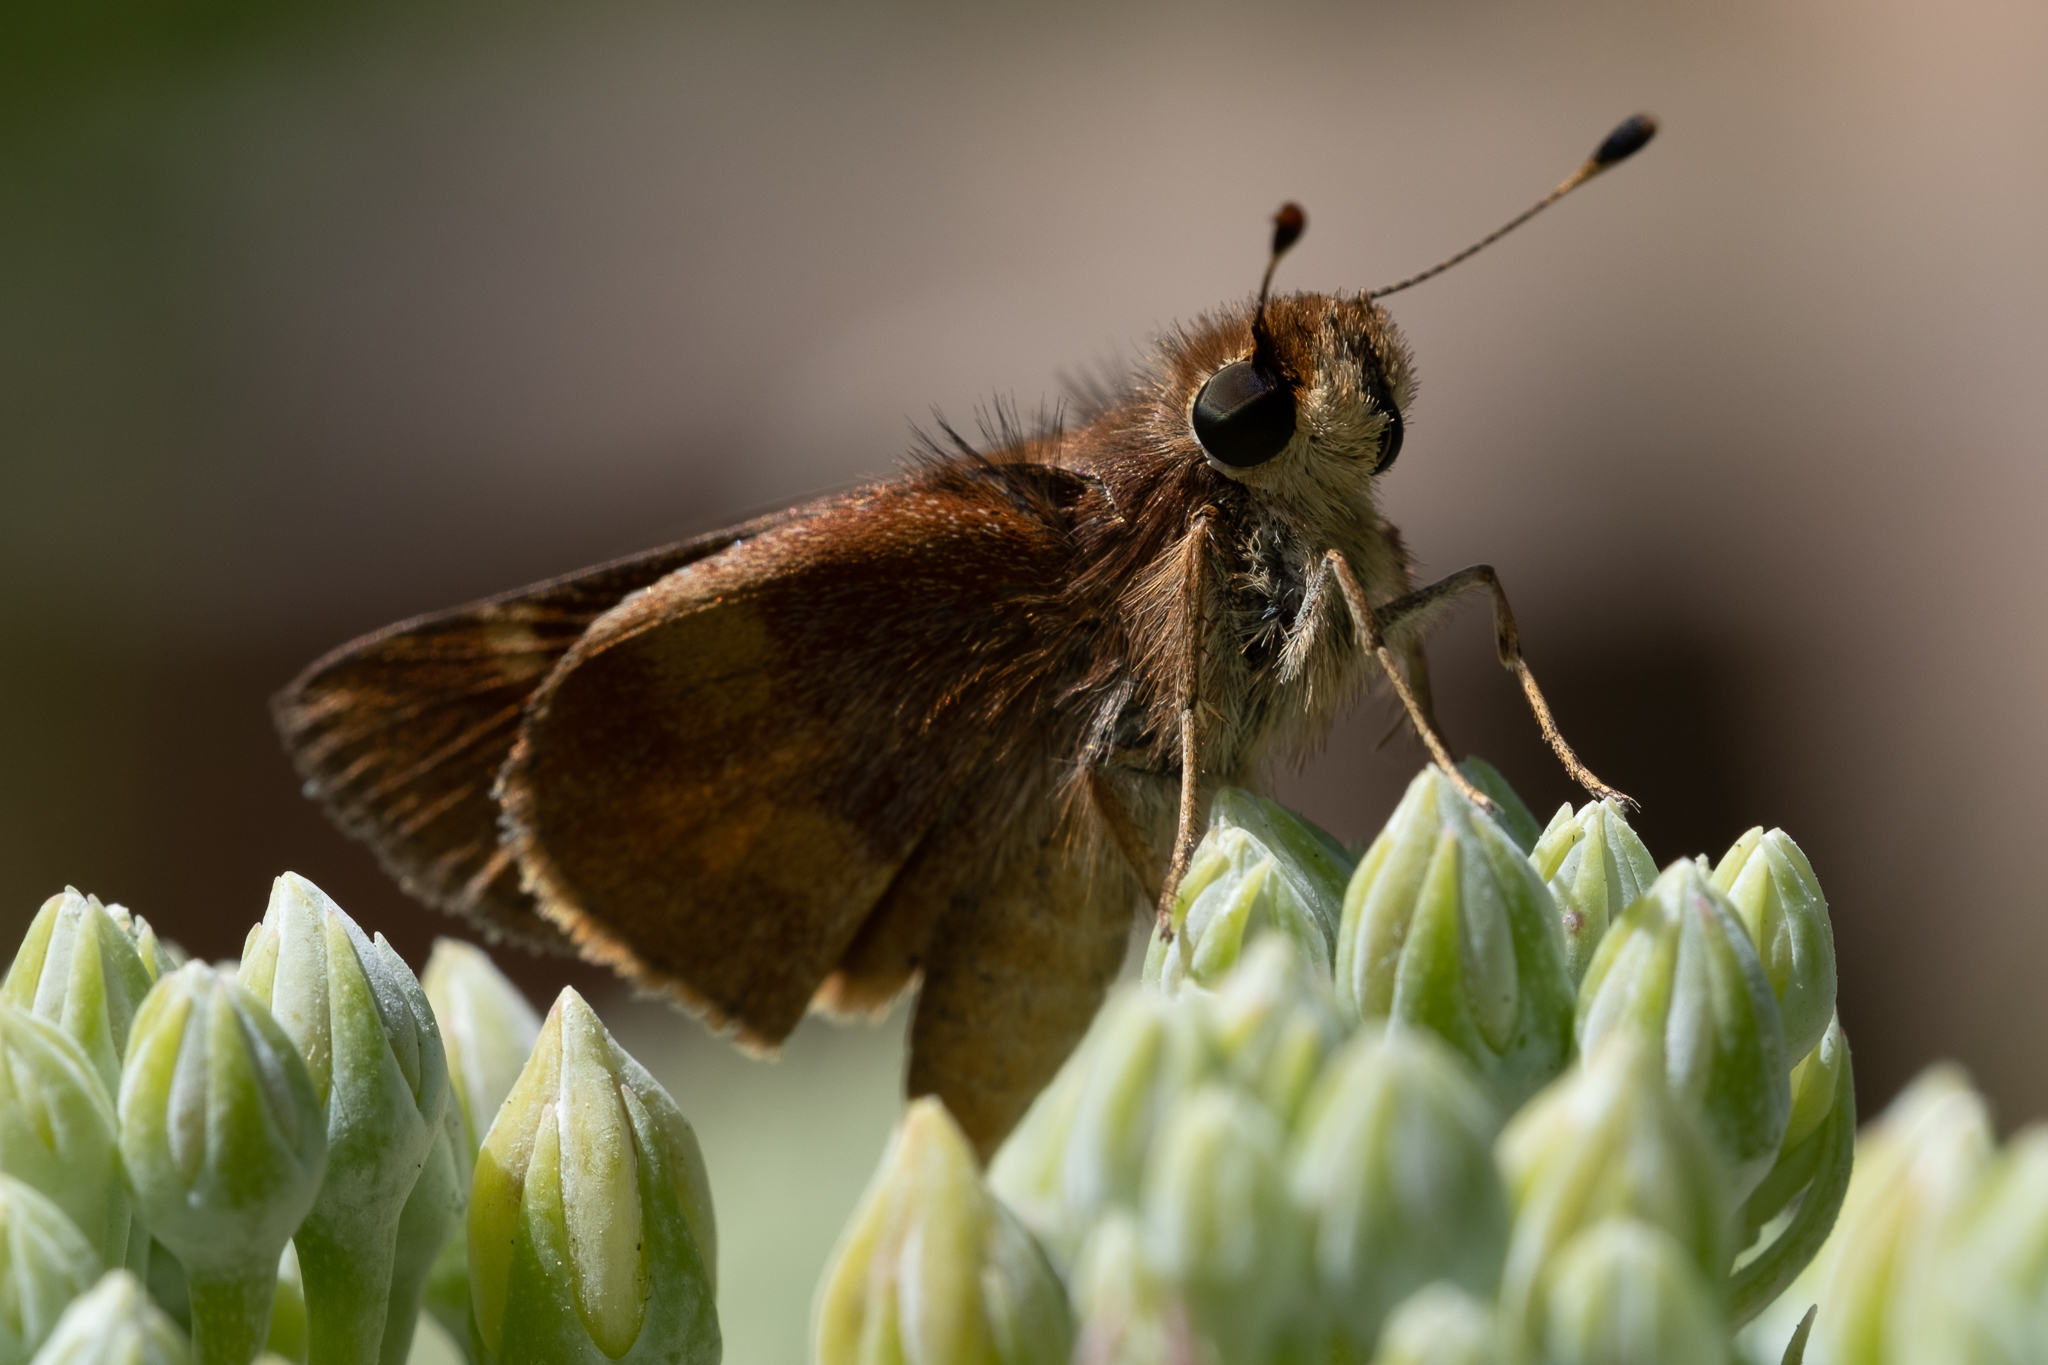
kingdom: Animalia
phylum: Arthropoda
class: Insecta
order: Lepidoptera
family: Hesperiidae
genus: Lon
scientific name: Lon melane
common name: Umber skipper
